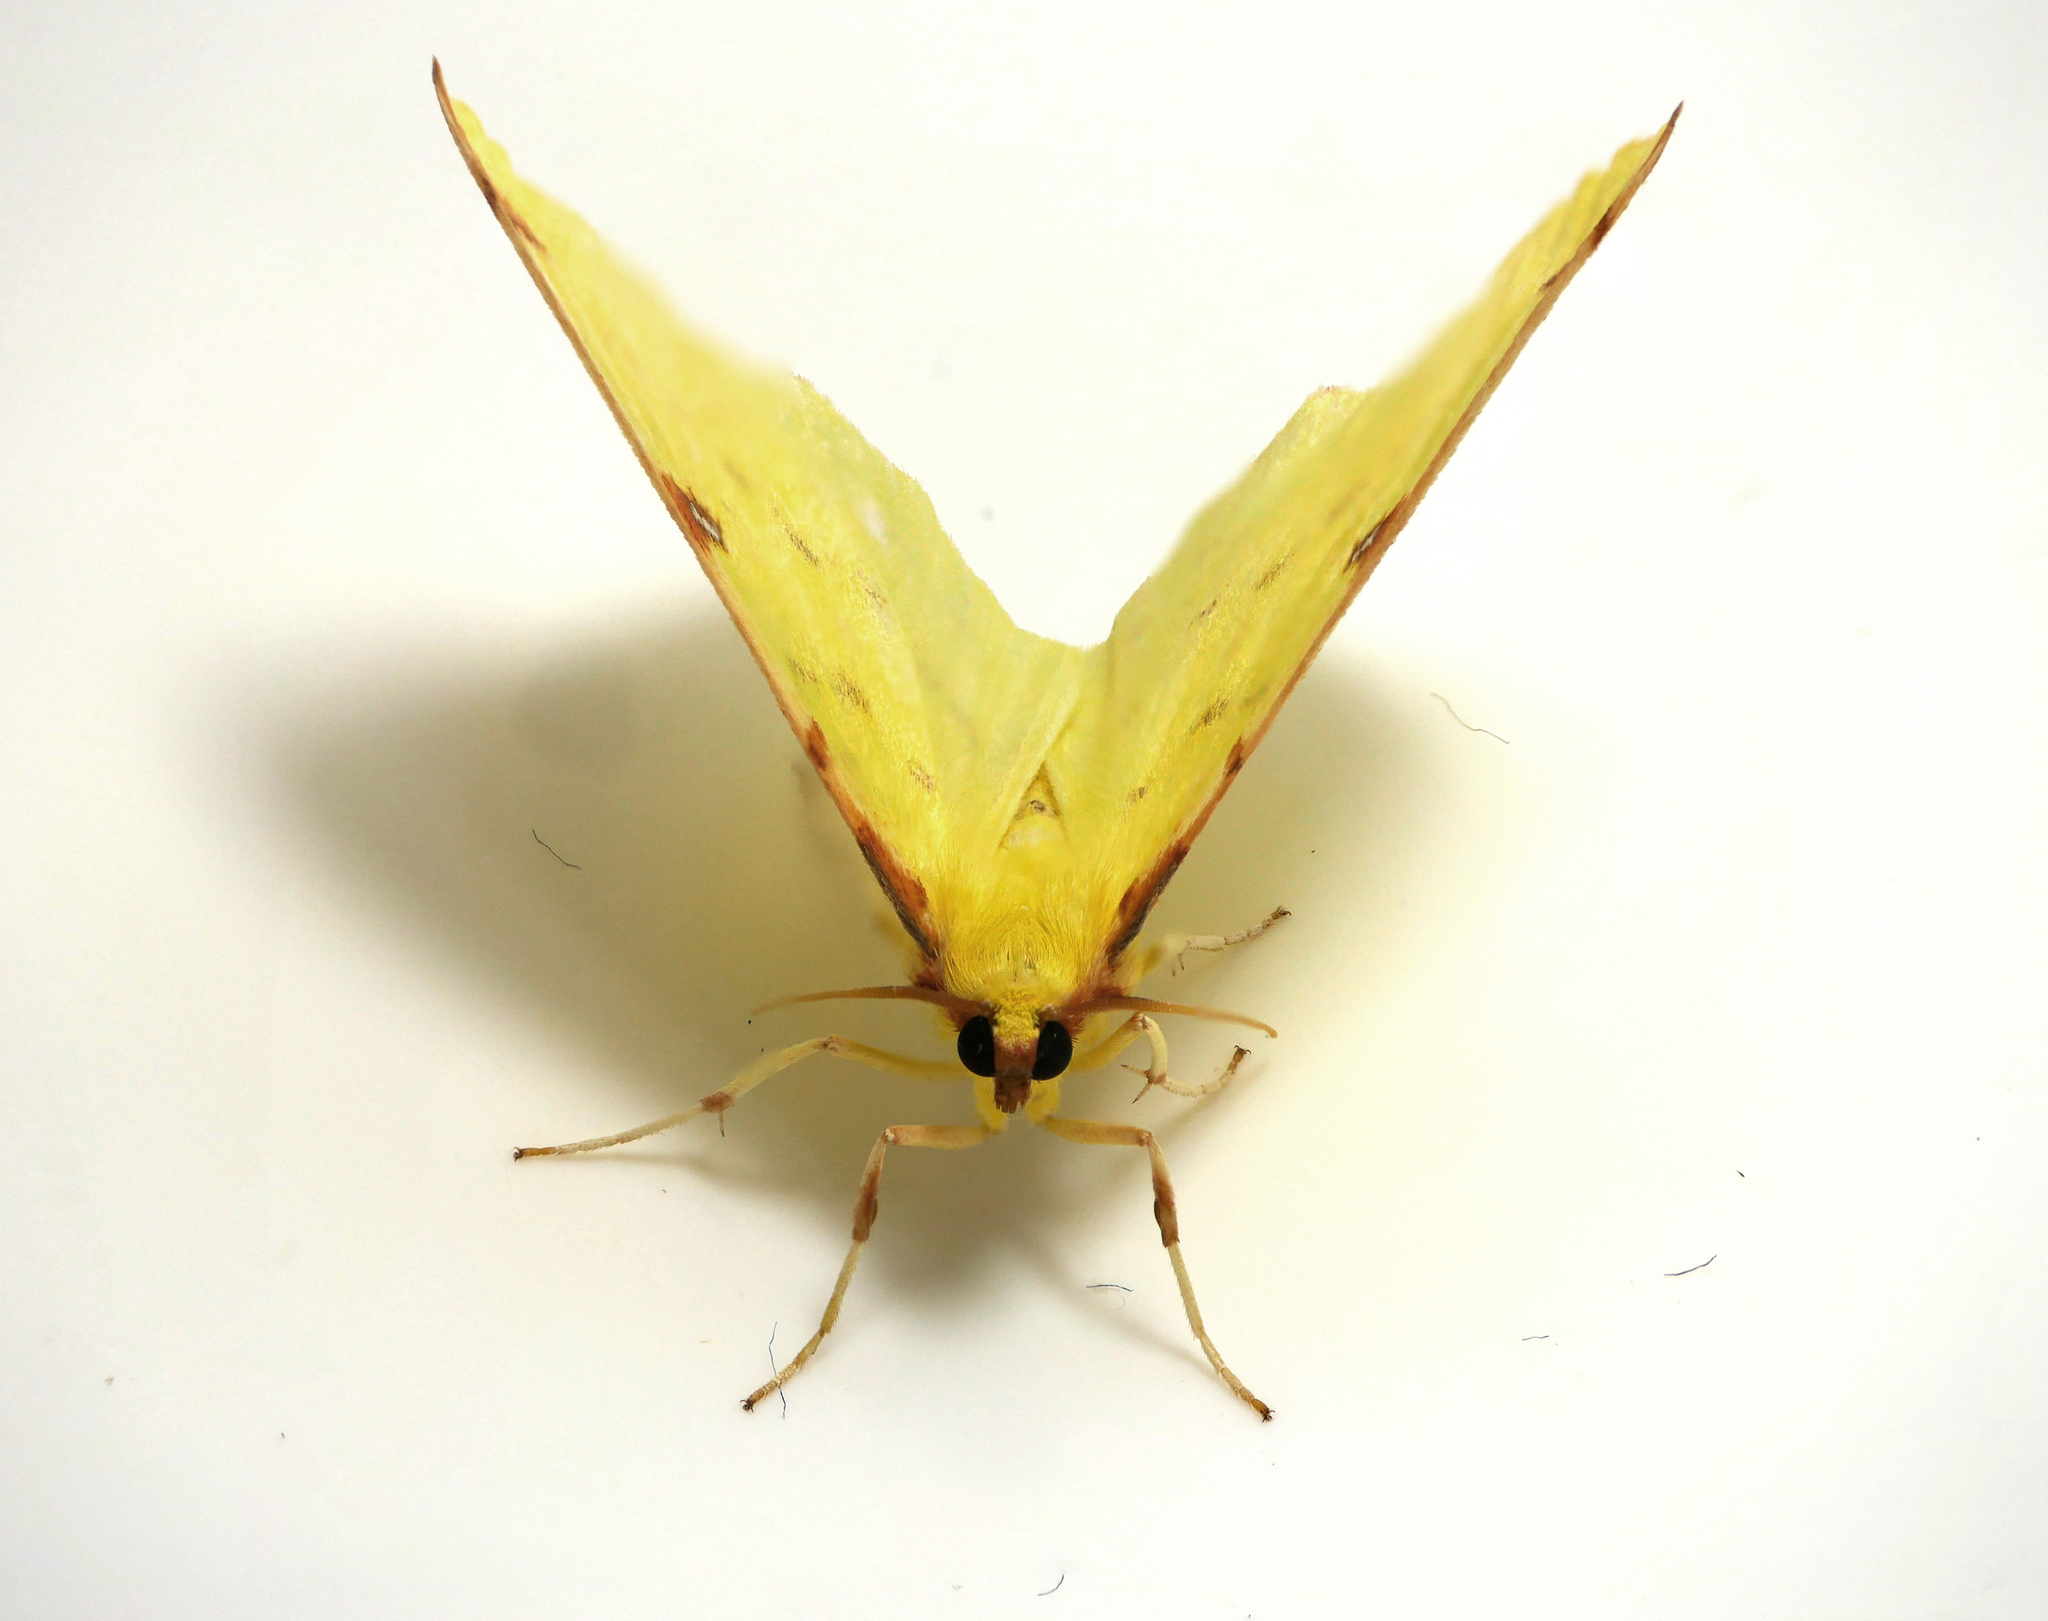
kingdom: Animalia
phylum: Arthropoda
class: Insecta
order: Lepidoptera
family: Geometridae
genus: Opisthograptis
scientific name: Opisthograptis luteolata
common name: Brimstone moth
